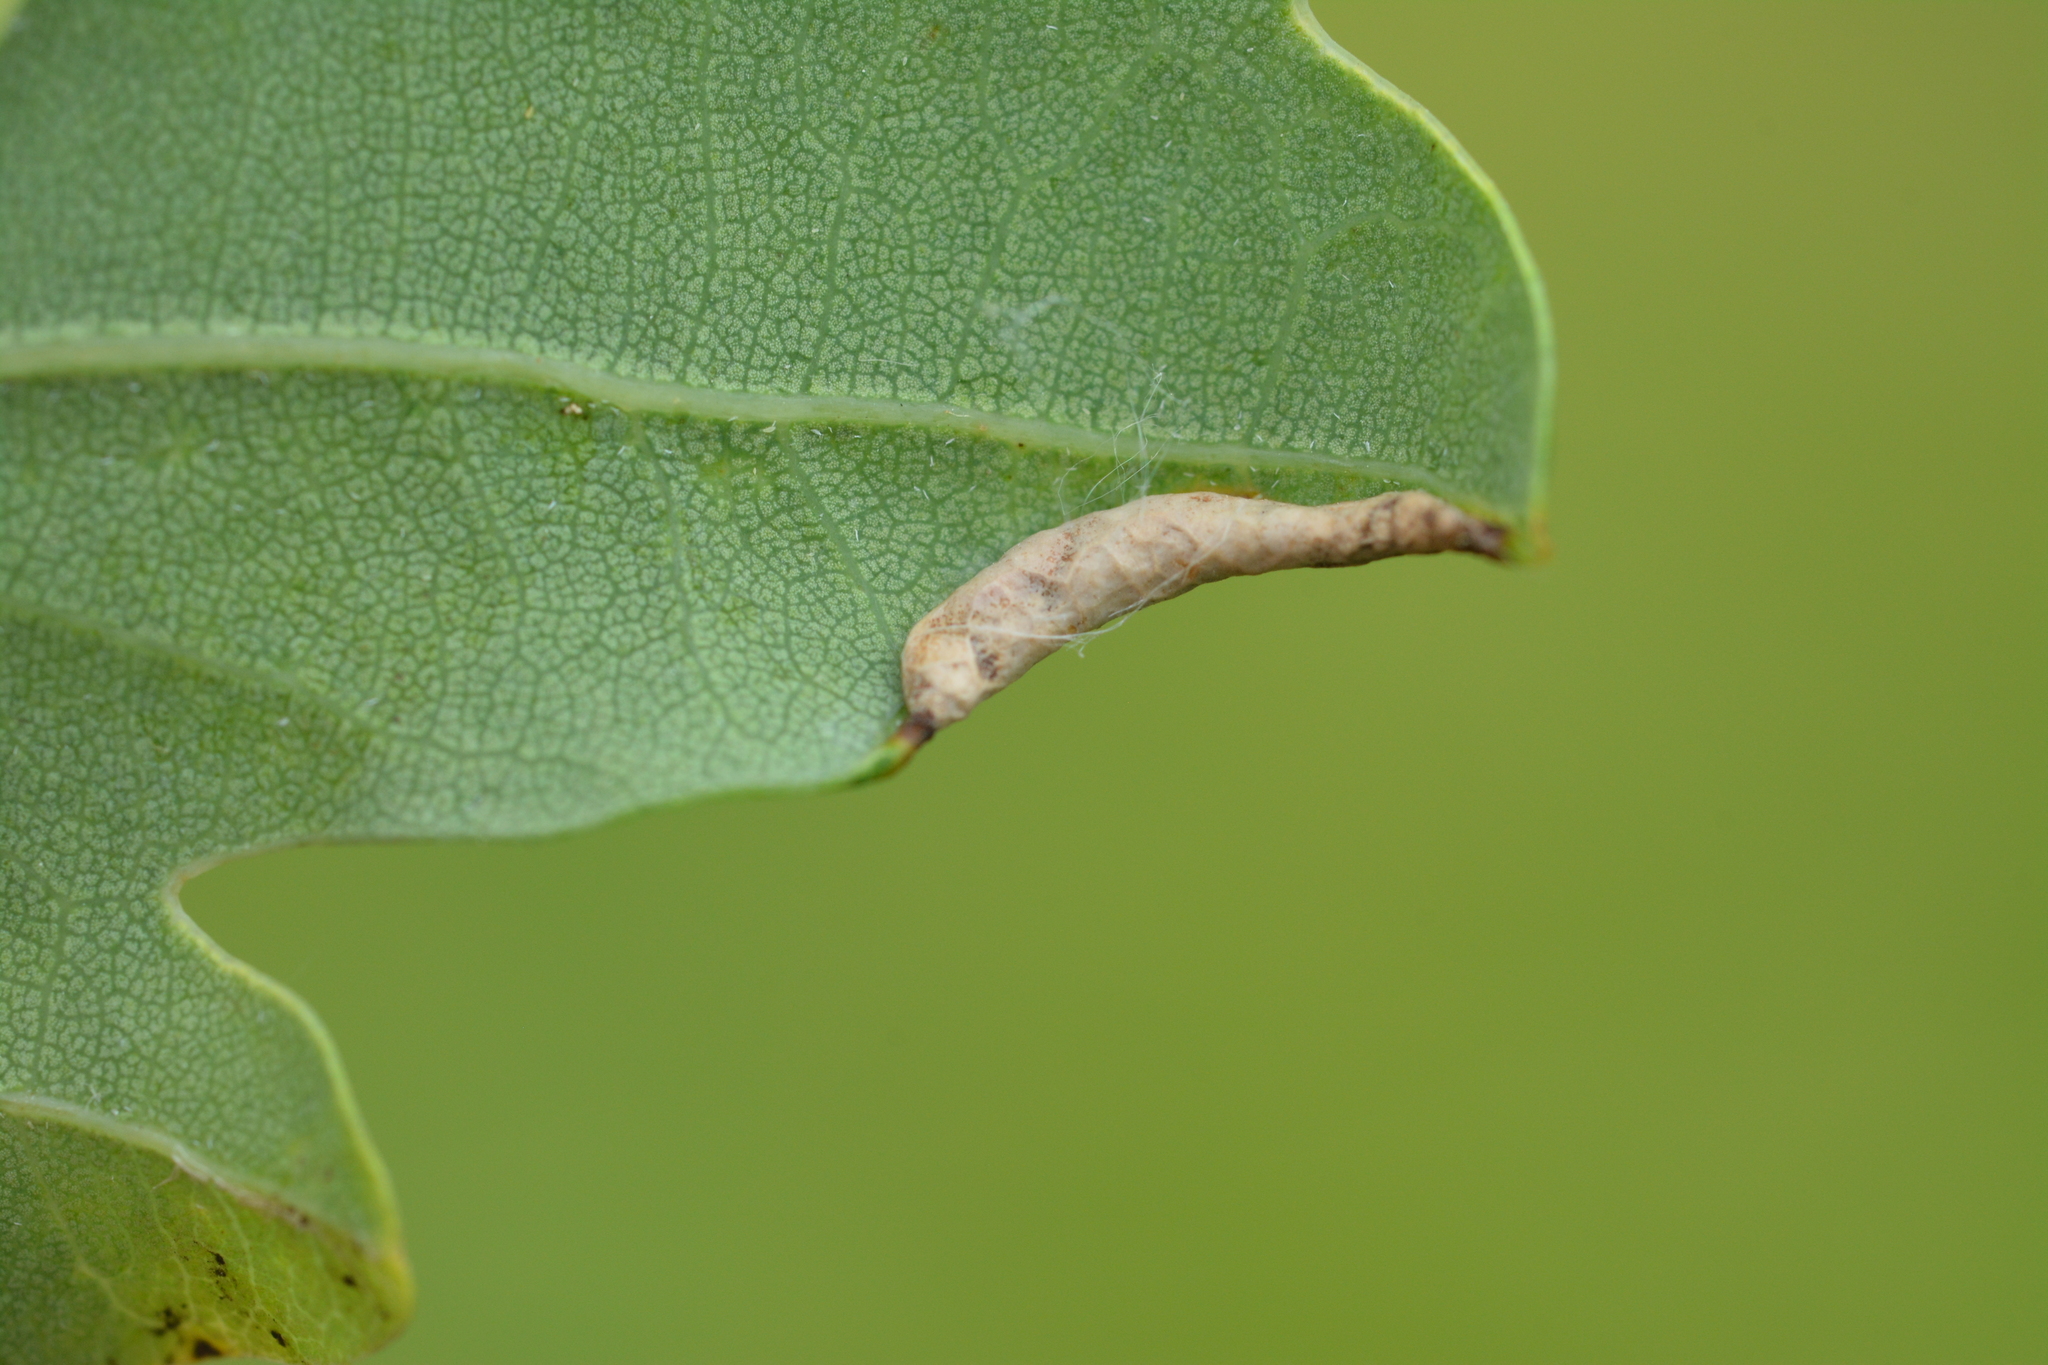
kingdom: Animalia
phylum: Arthropoda
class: Insecta
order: Diptera
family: Cecidomyiidae
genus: Macrodiplosis
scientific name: Macrodiplosis volvens
